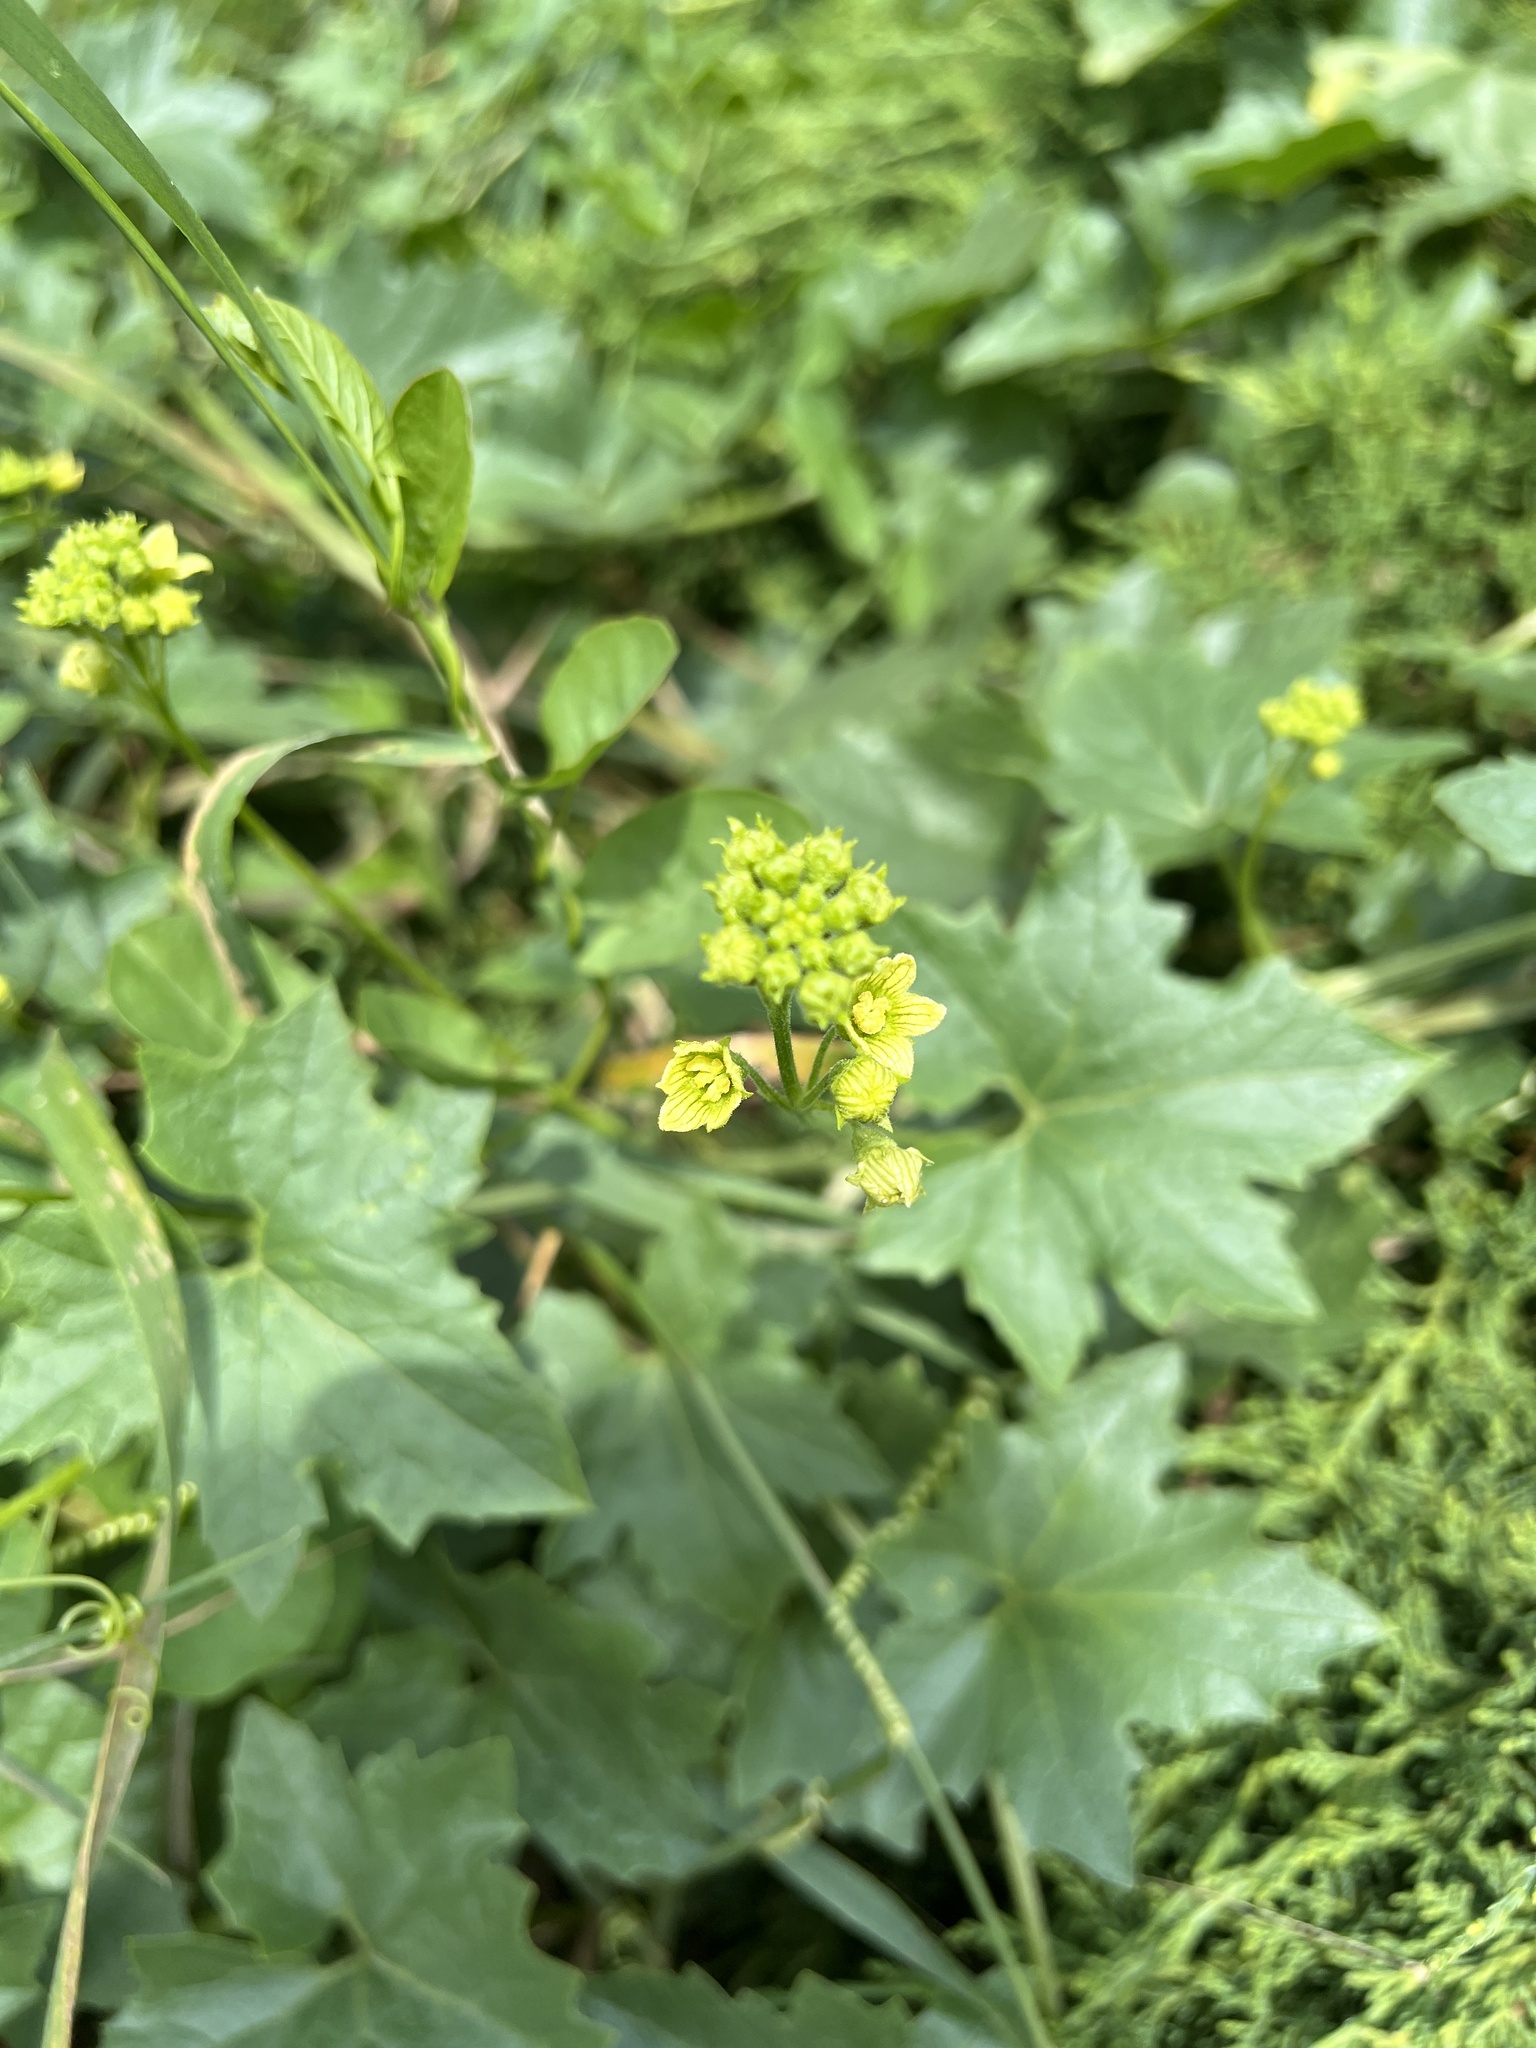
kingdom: Plantae
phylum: Tracheophyta
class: Magnoliopsida
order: Cucurbitales
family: Cucurbitaceae
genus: Bryonia
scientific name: Bryonia alba
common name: White bryony
